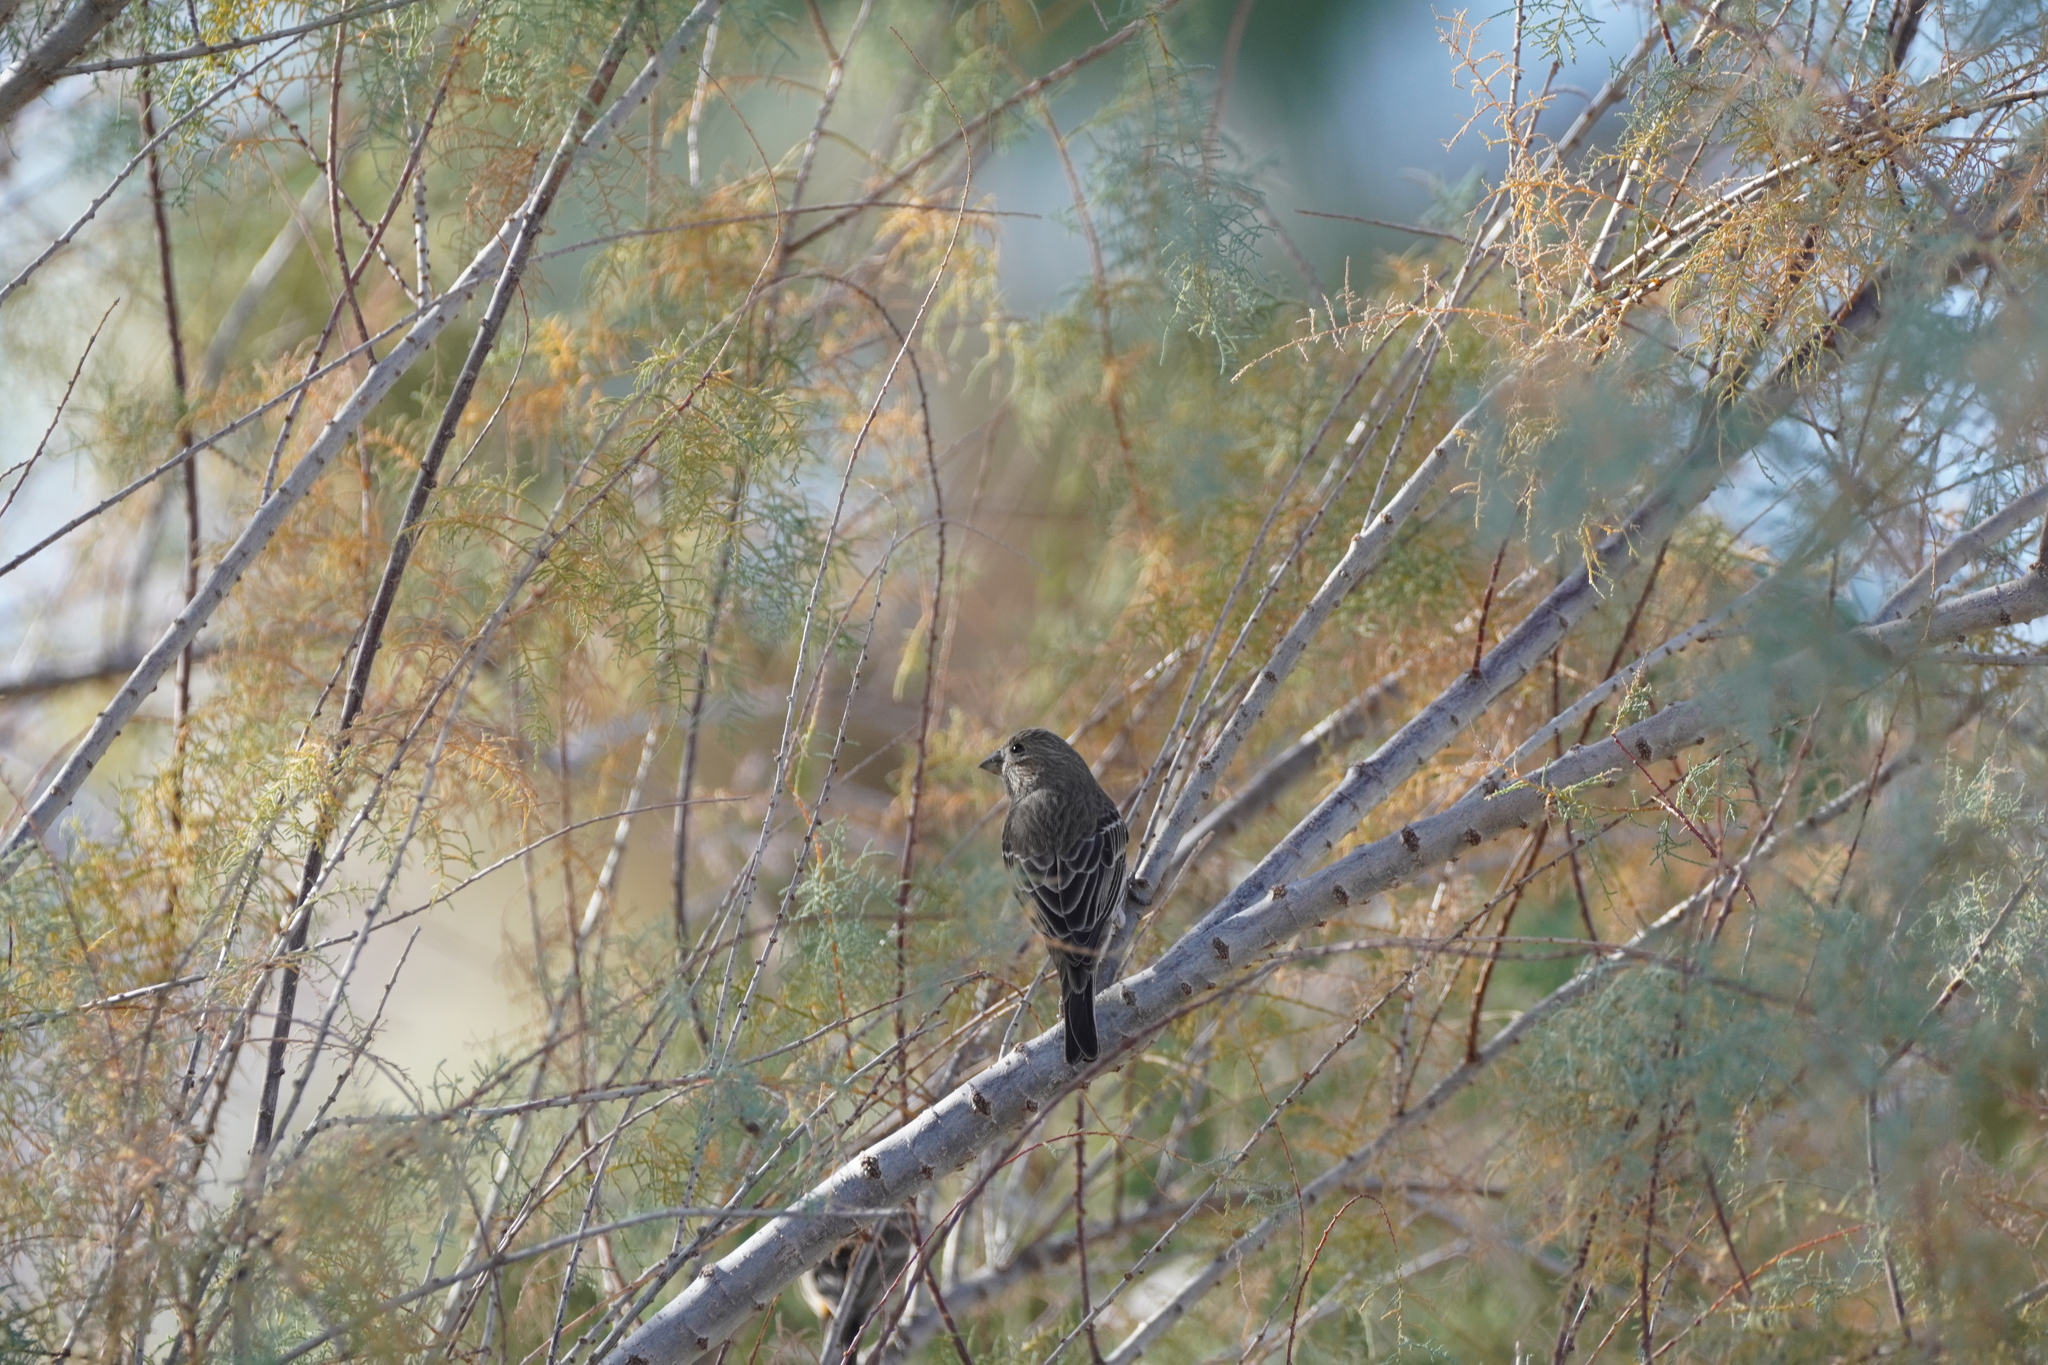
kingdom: Animalia
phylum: Chordata
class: Aves
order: Passeriformes
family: Fringillidae
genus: Haemorhous
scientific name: Haemorhous mexicanus
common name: House finch
